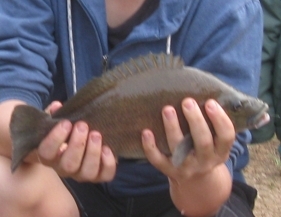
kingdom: Animalia
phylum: Chordata
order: Perciformes
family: Terapontidae
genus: Hephaestus
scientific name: Hephaestus fuliginosus
